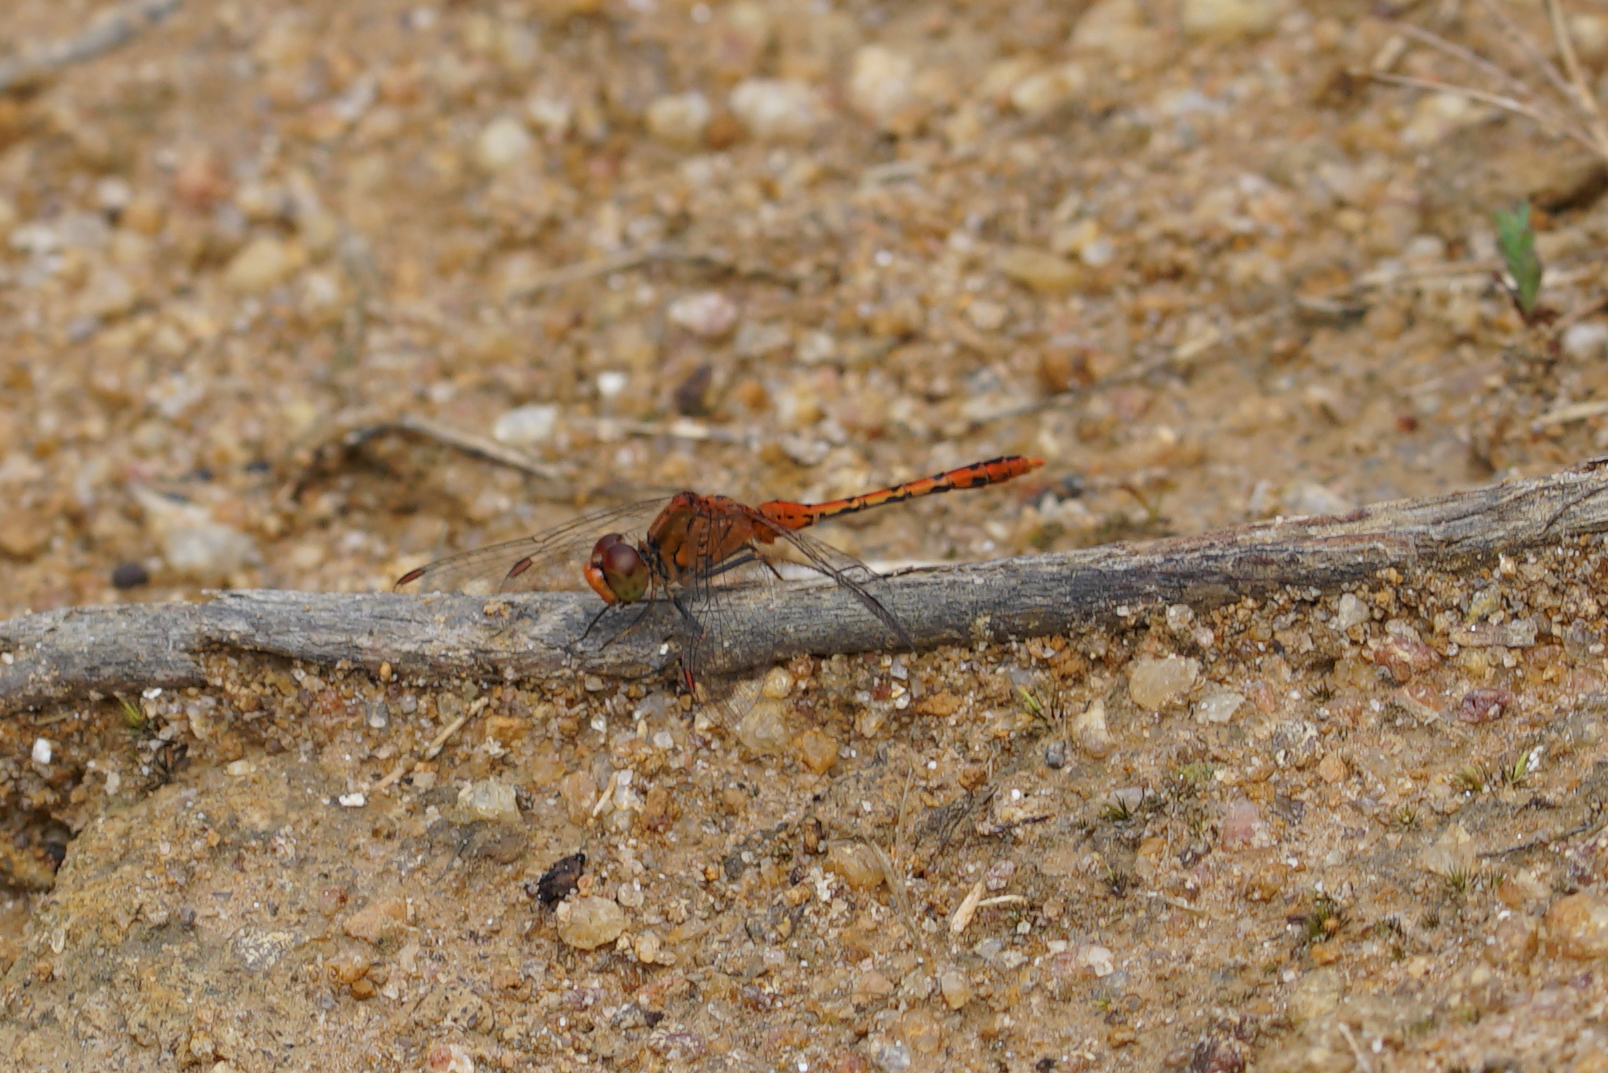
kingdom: Animalia
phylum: Arthropoda
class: Insecta
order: Odonata
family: Libellulidae
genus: Diplacodes
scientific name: Diplacodes bipunctata
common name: Red percher dragonfly
